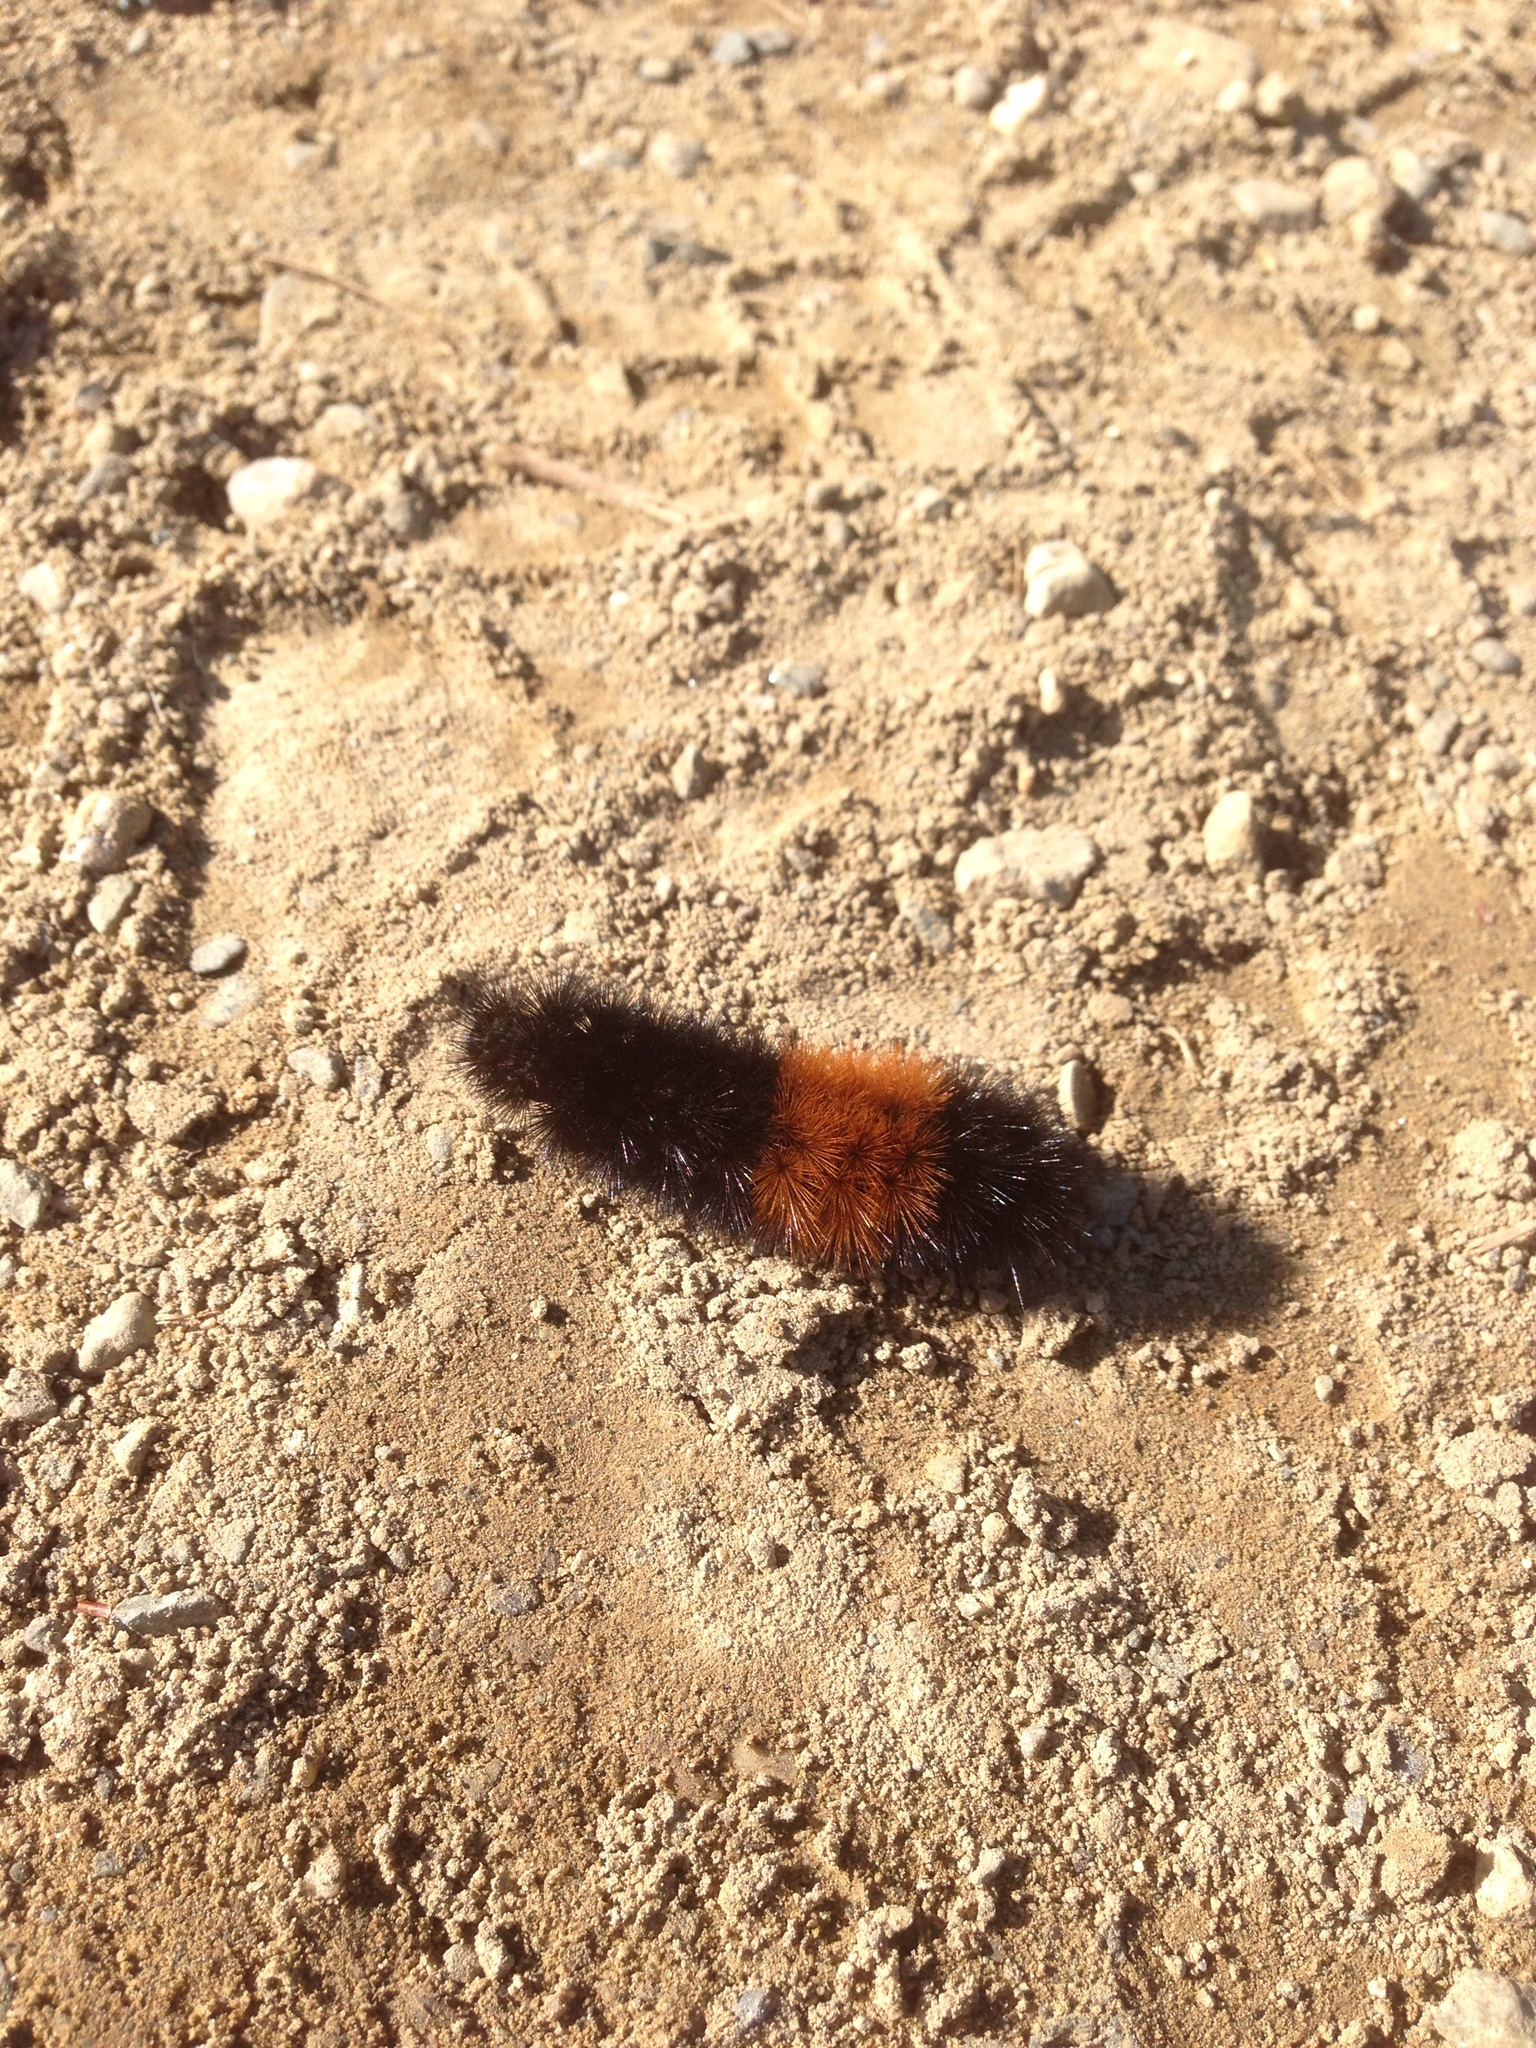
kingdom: Animalia
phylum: Arthropoda
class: Insecta
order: Lepidoptera
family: Erebidae
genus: Pyrrharctia
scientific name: Pyrrharctia isabella
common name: Isabella tiger moth
